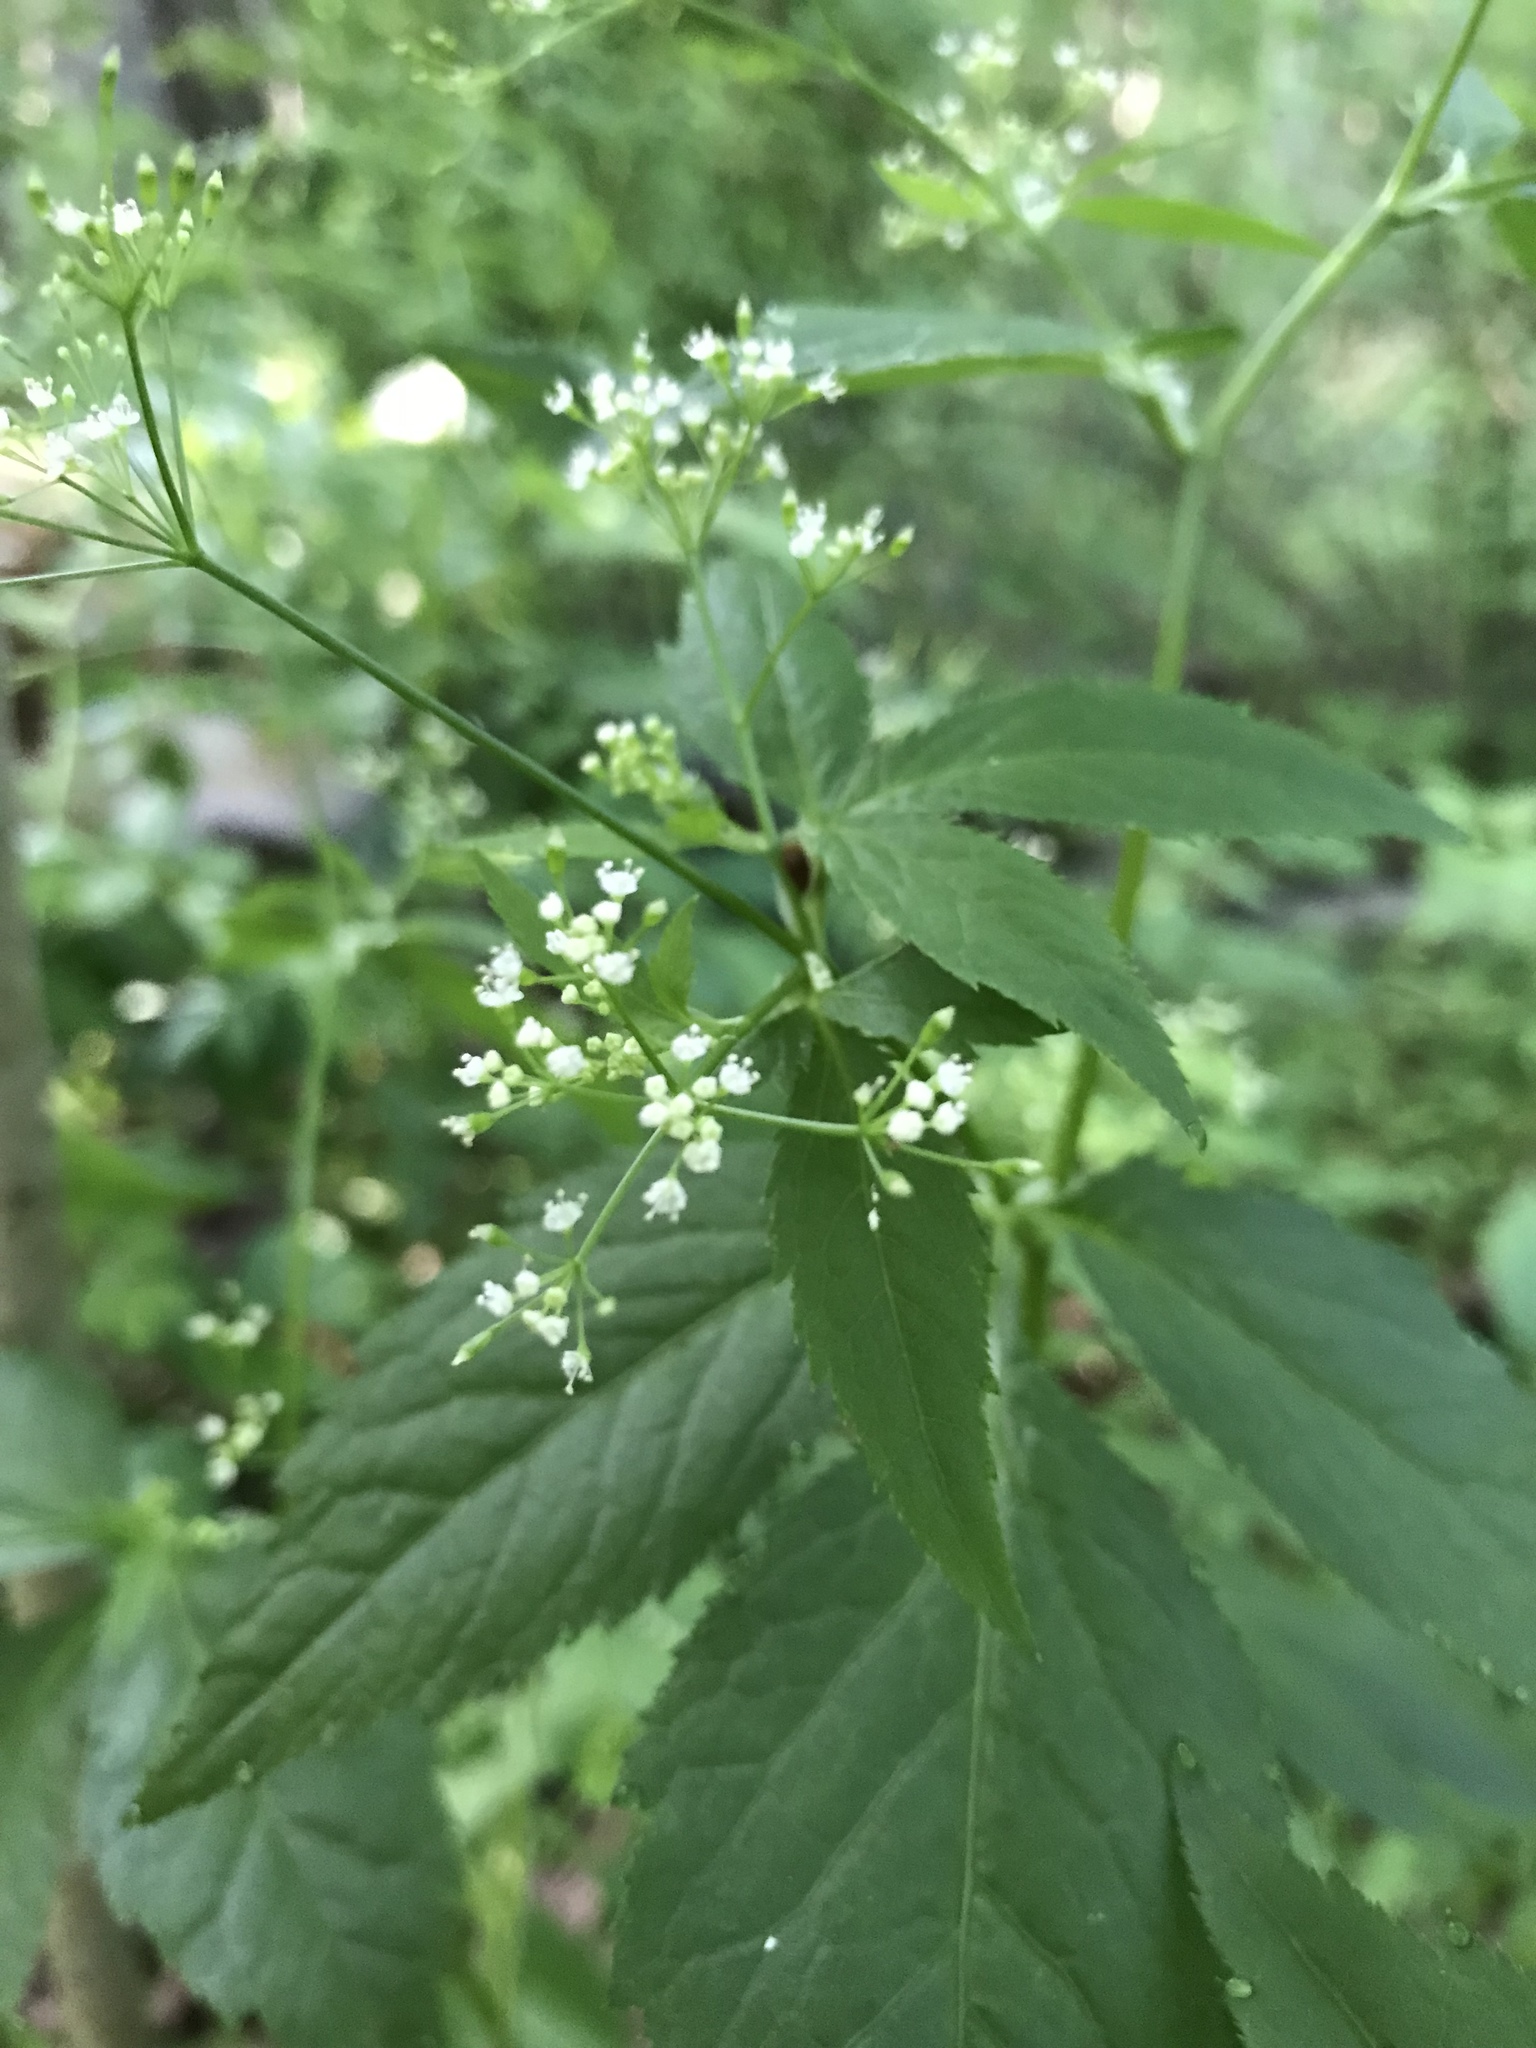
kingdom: Plantae
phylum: Tracheophyta
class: Magnoliopsida
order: Apiales
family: Apiaceae
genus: Cryptotaenia
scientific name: Cryptotaenia canadensis
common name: Honewort
